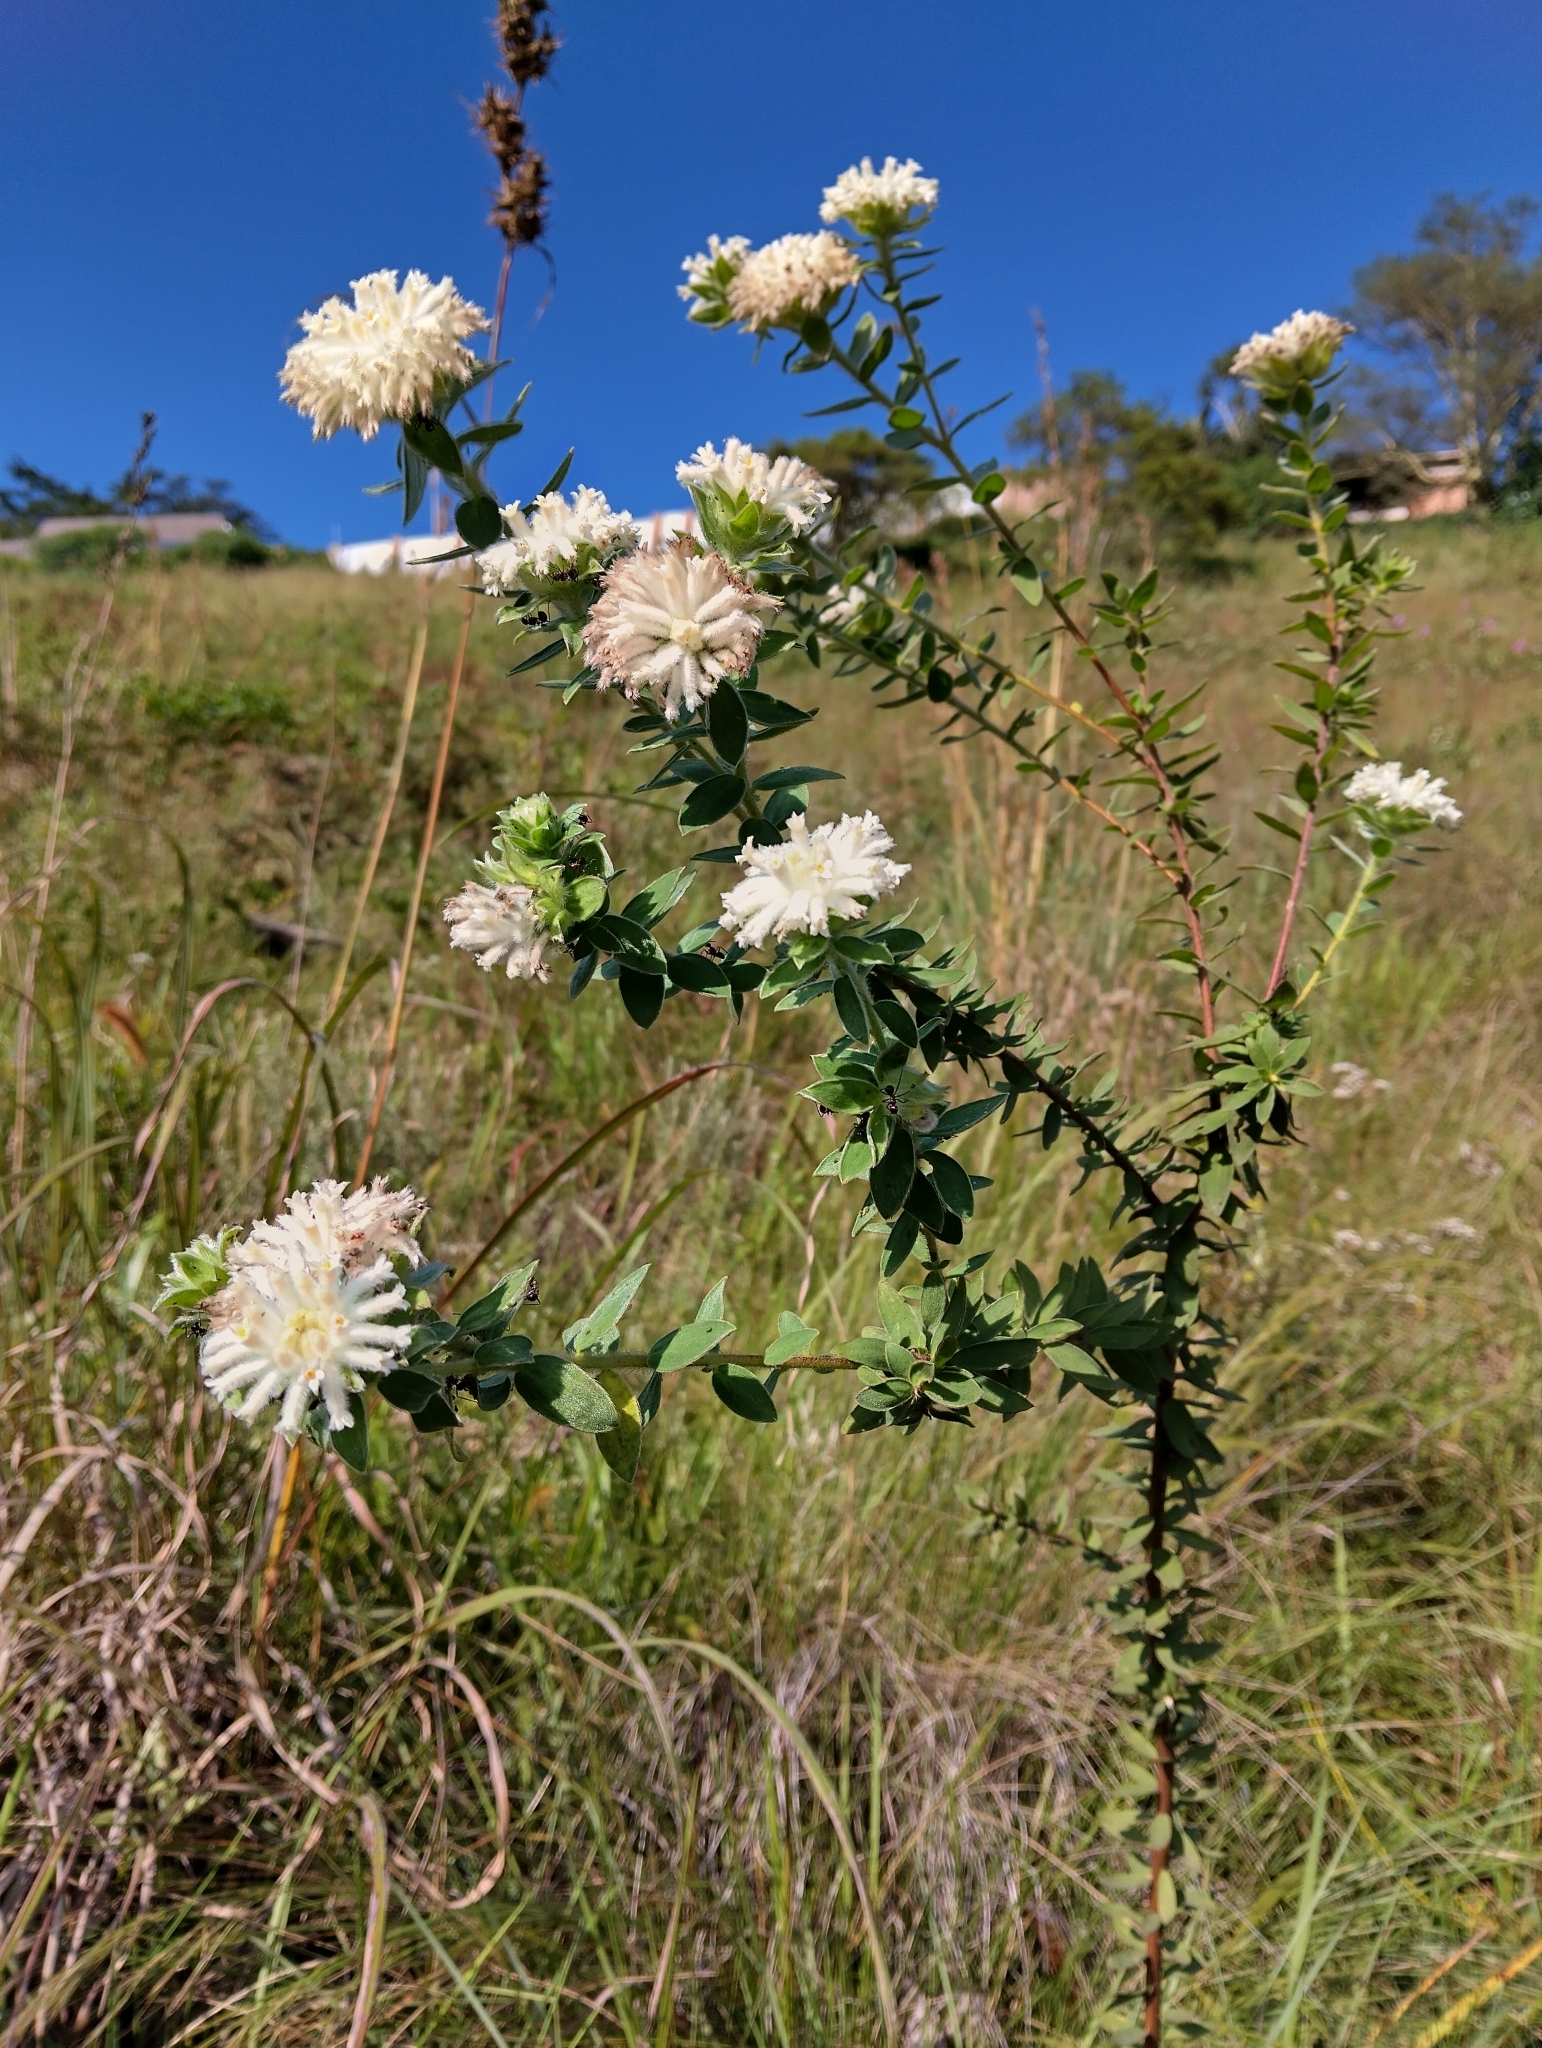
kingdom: Plantae
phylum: Tracheophyta
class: Magnoliopsida
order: Malvales
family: Thymelaeaceae
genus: Gnidia
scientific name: Gnidia calocephala
